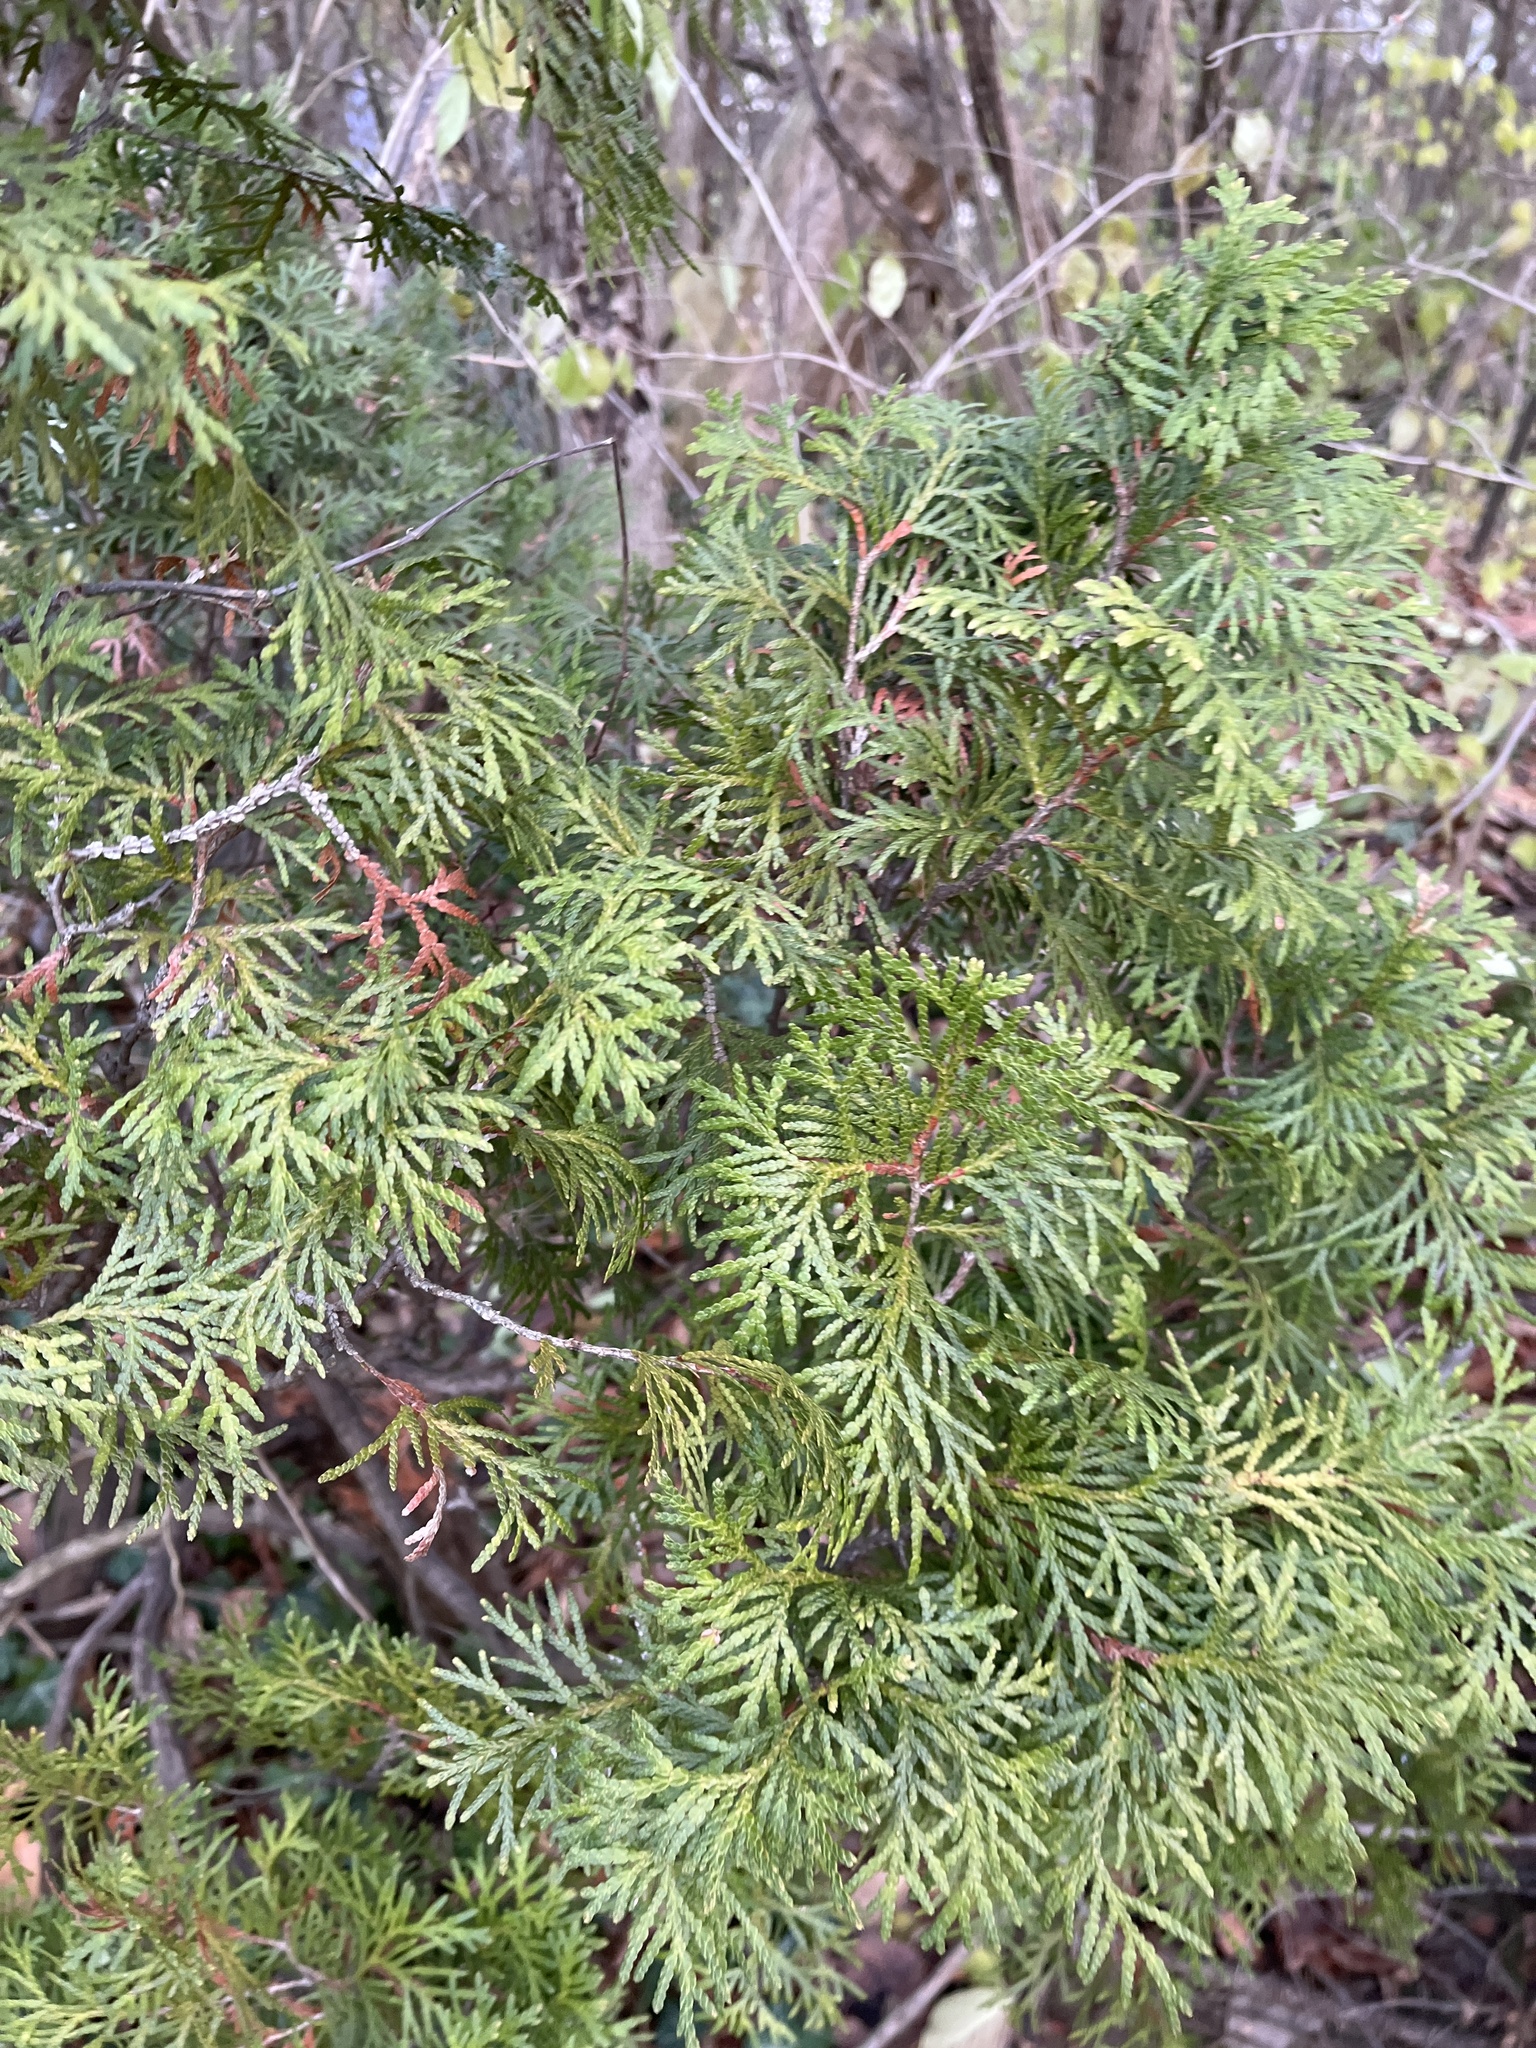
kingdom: Plantae
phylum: Tracheophyta
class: Pinopsida
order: Pinales
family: Cupressaceae
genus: Thuja
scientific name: Thuja occidentalis
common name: Northern white-cedar
